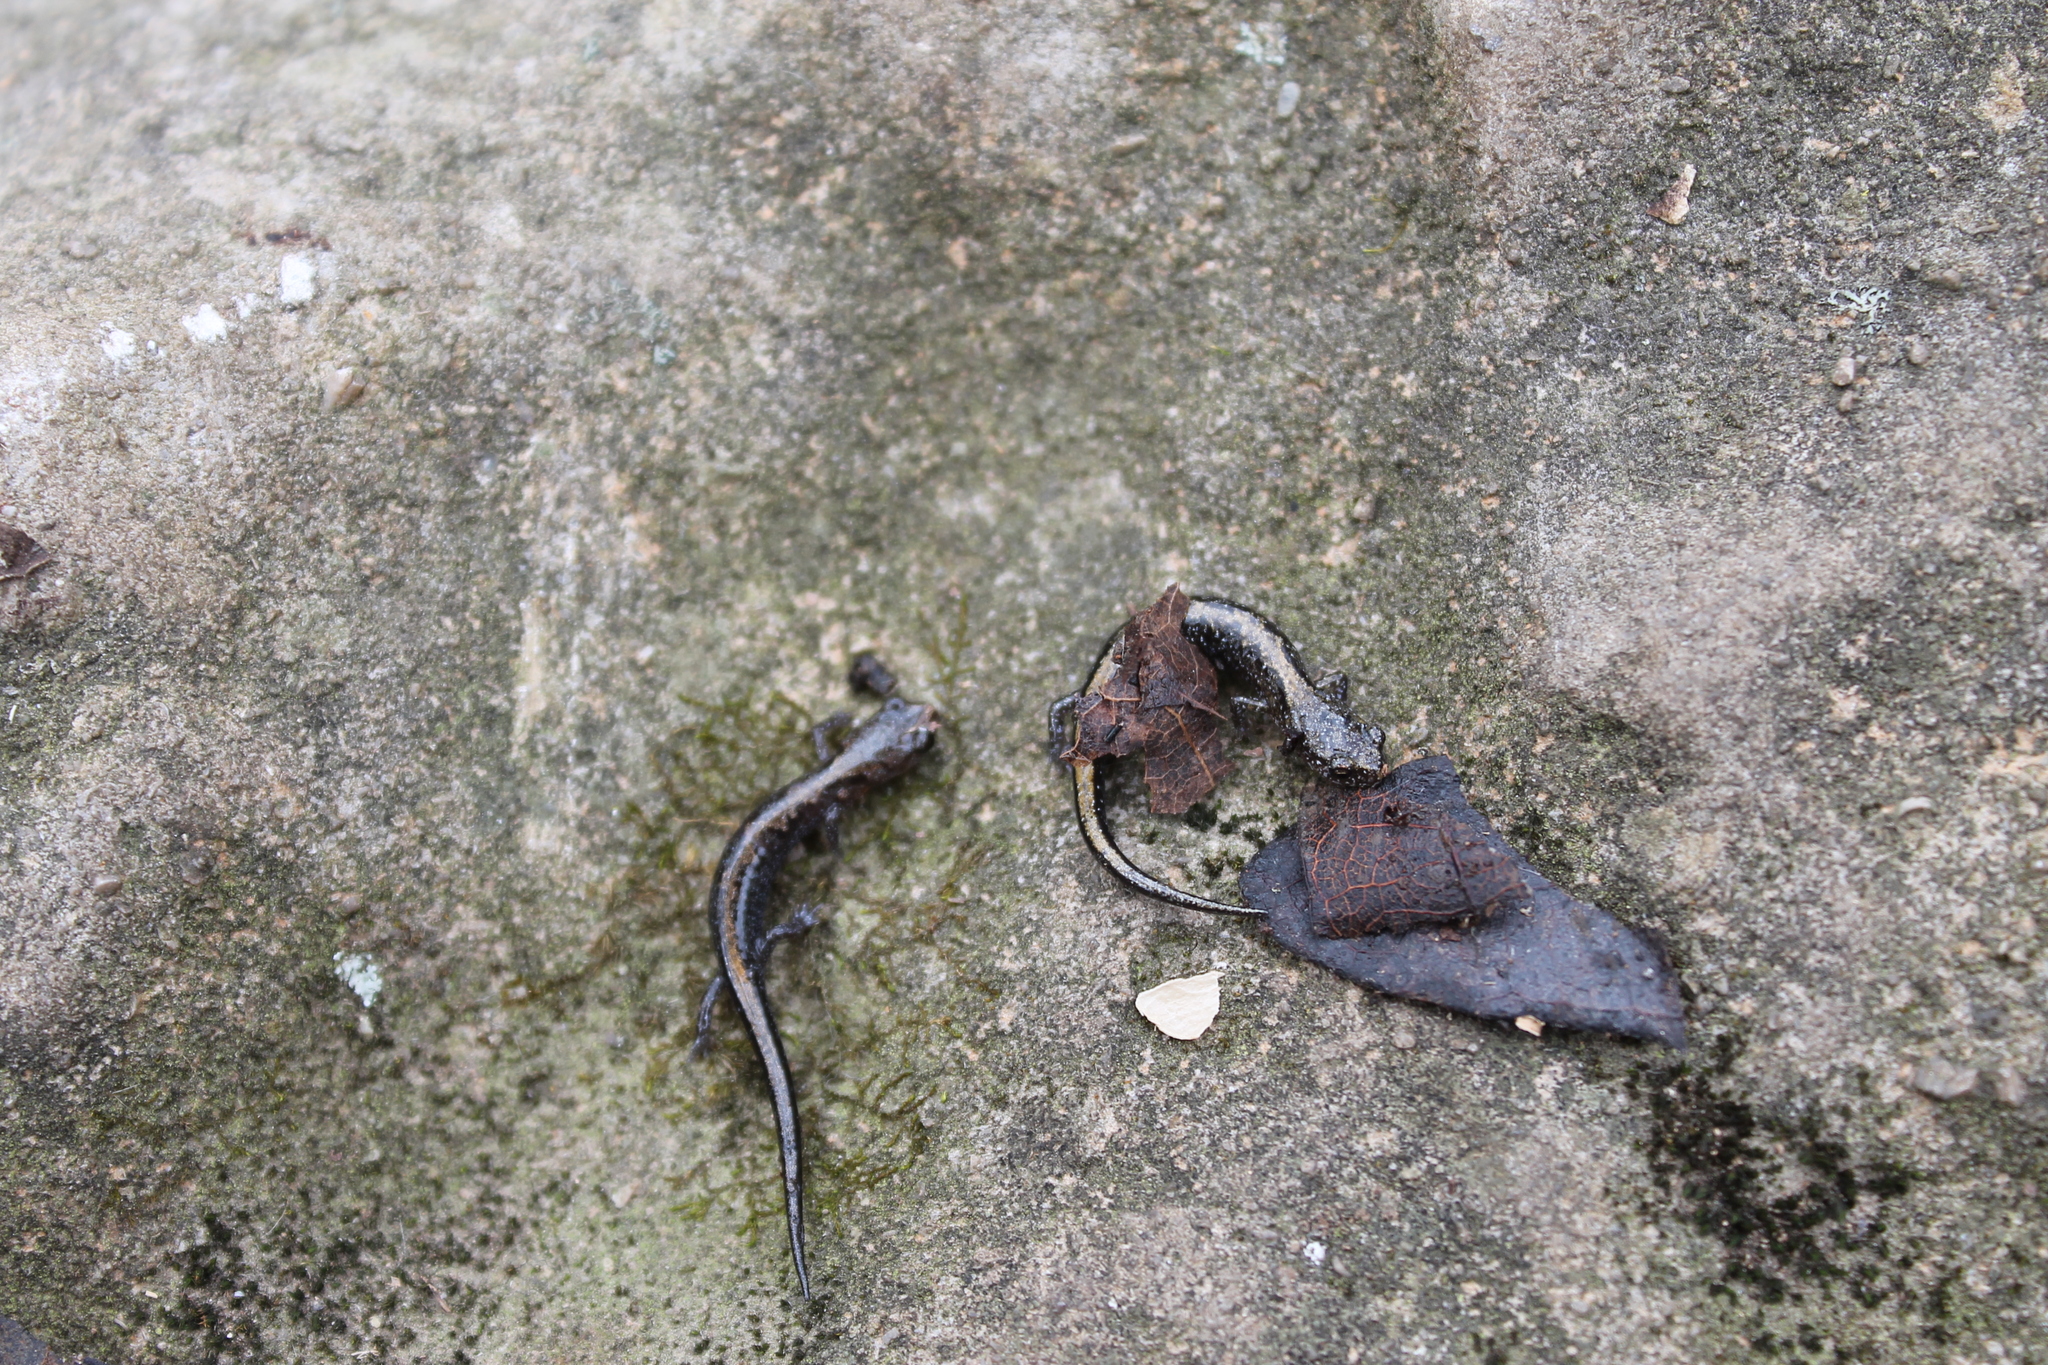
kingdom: Animalia
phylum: Chordata
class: Amphibia
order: Caudata
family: Plethodontidae
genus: Plethodon
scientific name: Plethodon dorsalis
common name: Northern zigzag salamander
